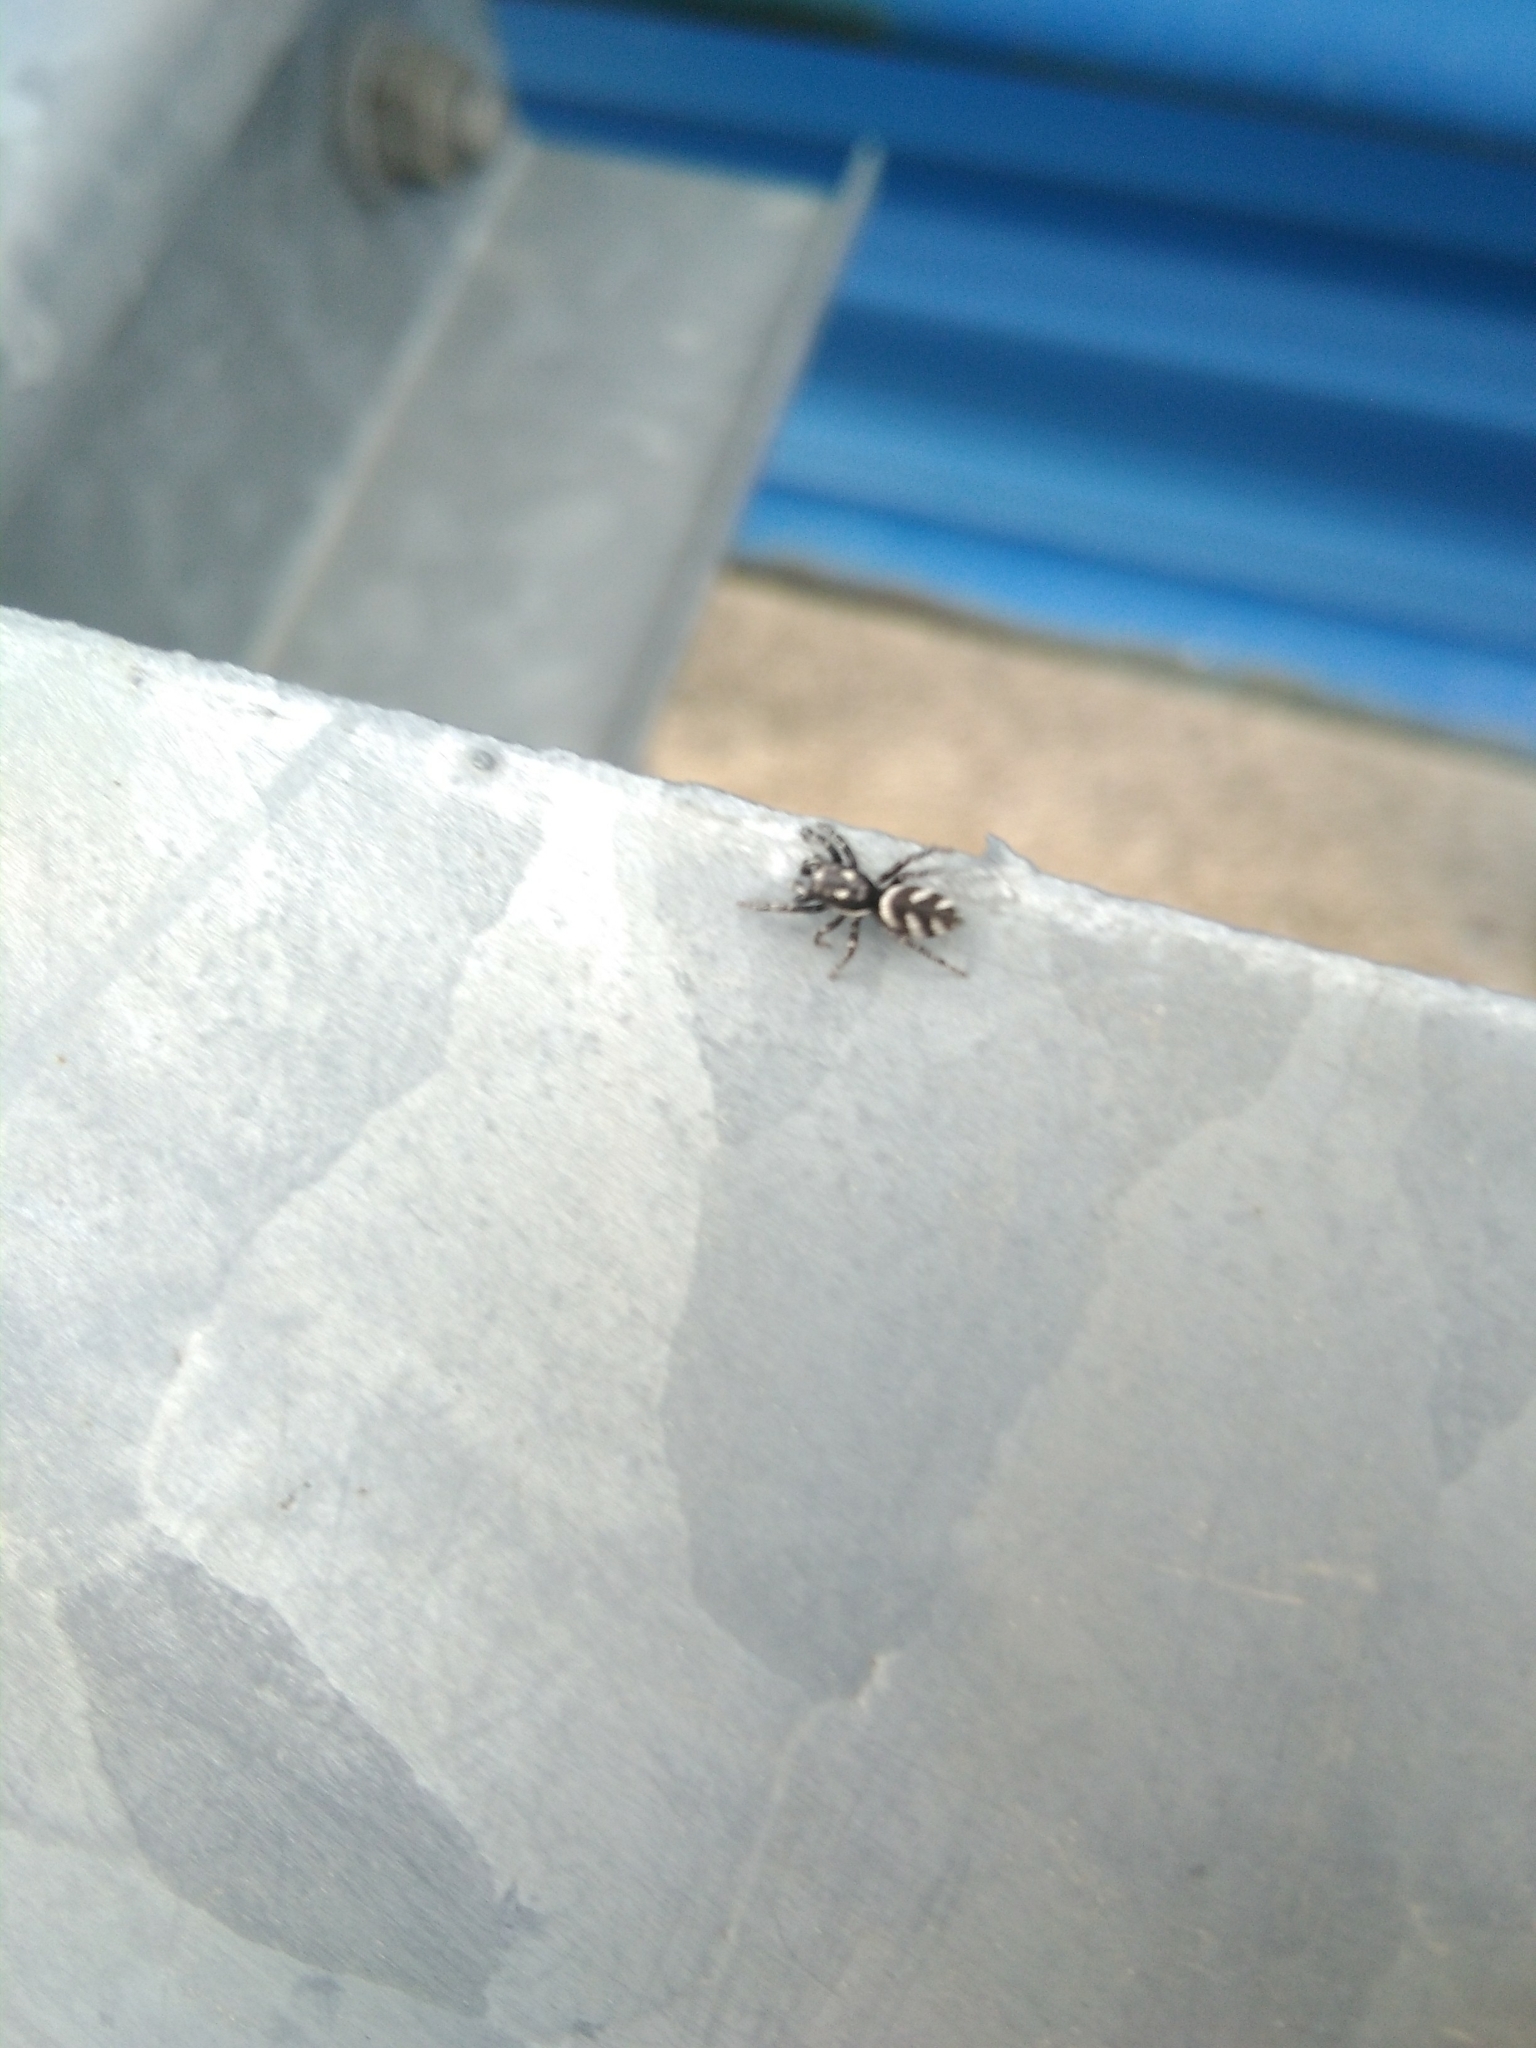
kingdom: Animalia
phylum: Arthropoda
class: Arachnida
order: Araneae
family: Salticidae
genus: Salticus
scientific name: Salticus scenicus
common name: Zebra jumper
